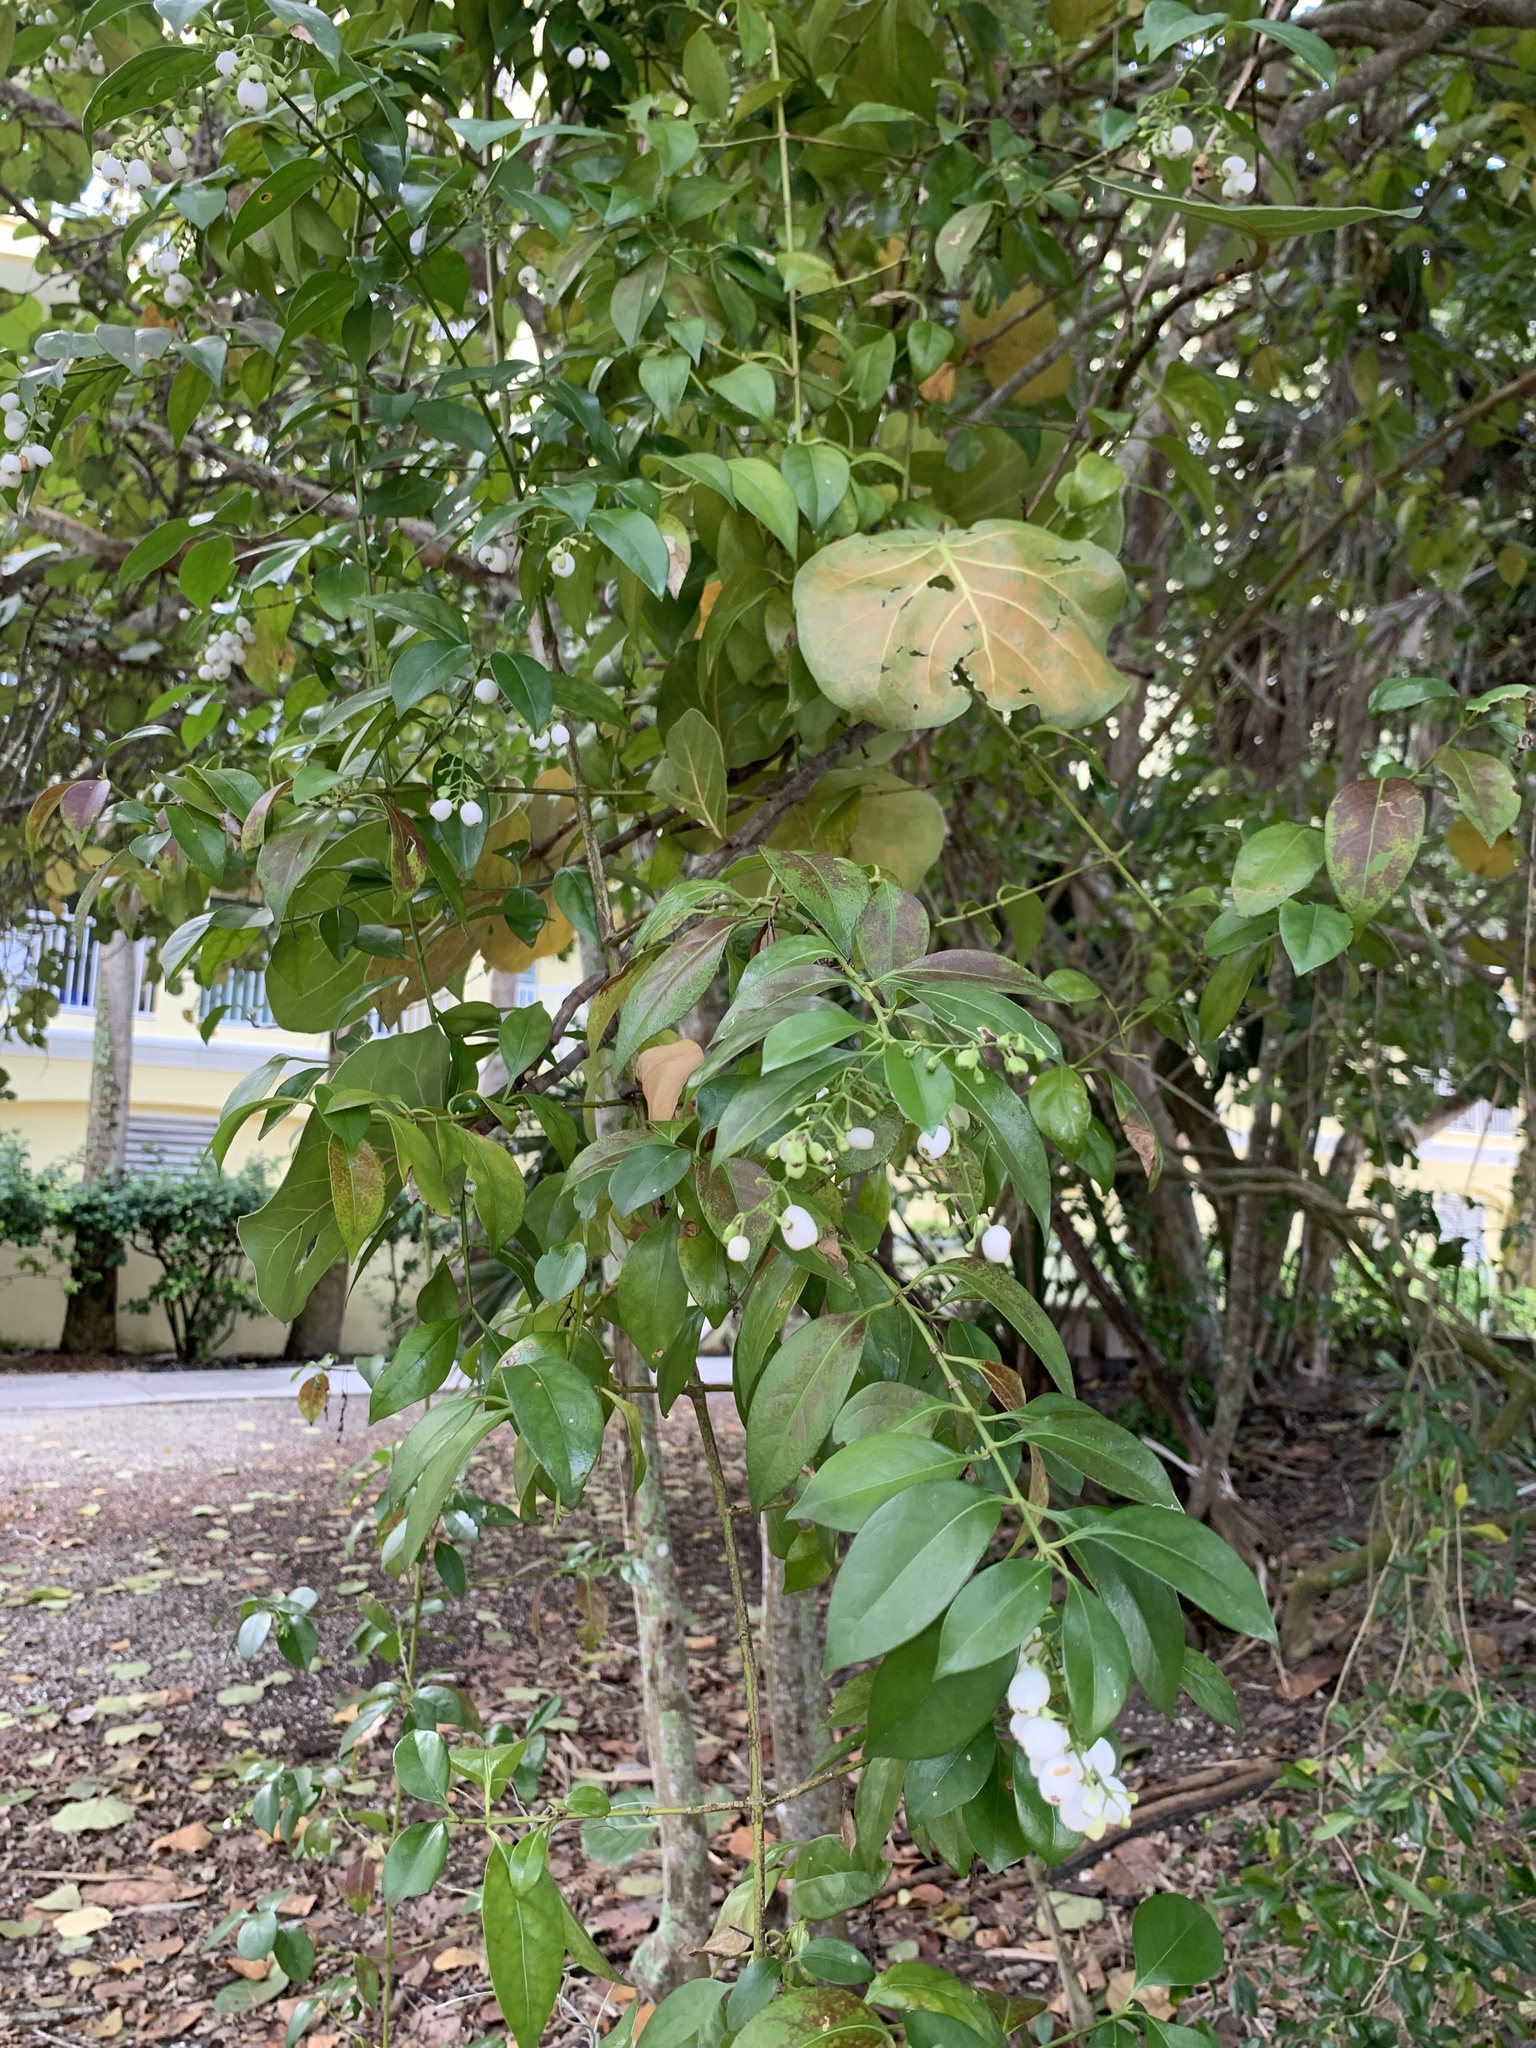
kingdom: Plantae
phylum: Tracheophyta
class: Magnoliopsida
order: Gentianales
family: Rubiaceae
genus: Chiococca
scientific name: Chiococca alba
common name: Snowberry
